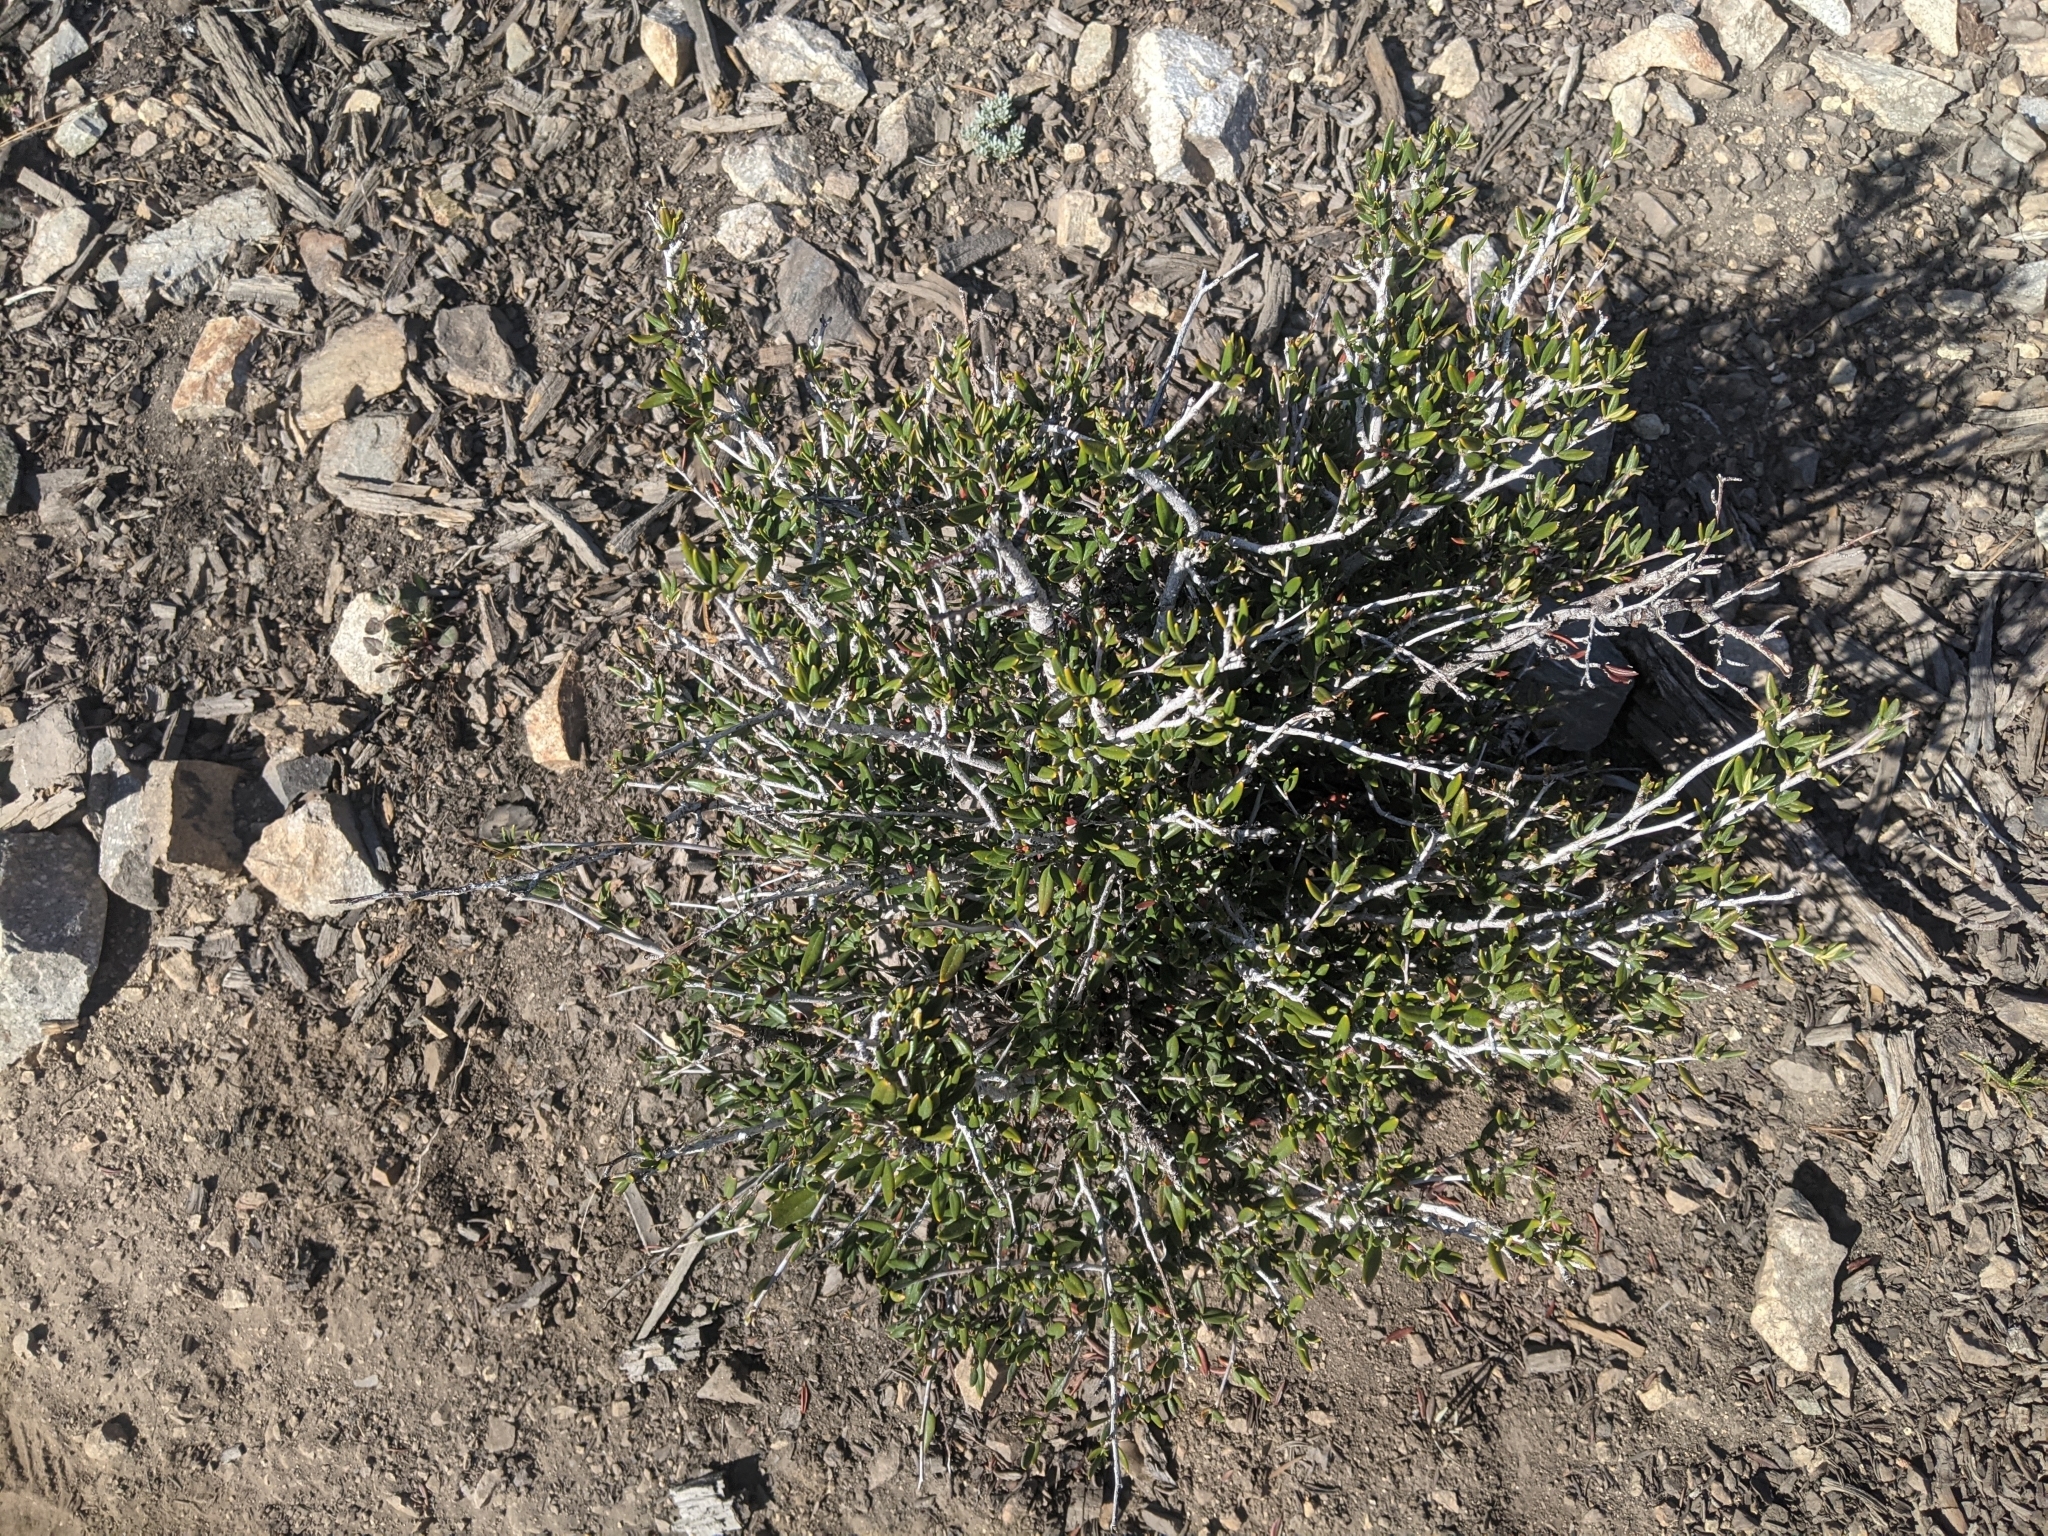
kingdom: Plantae
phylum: Tracheophyta
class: Magnoliopsida
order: Rosales
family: Rosaceae
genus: Cercocarpus
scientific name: Cercocarpus ledifolius
